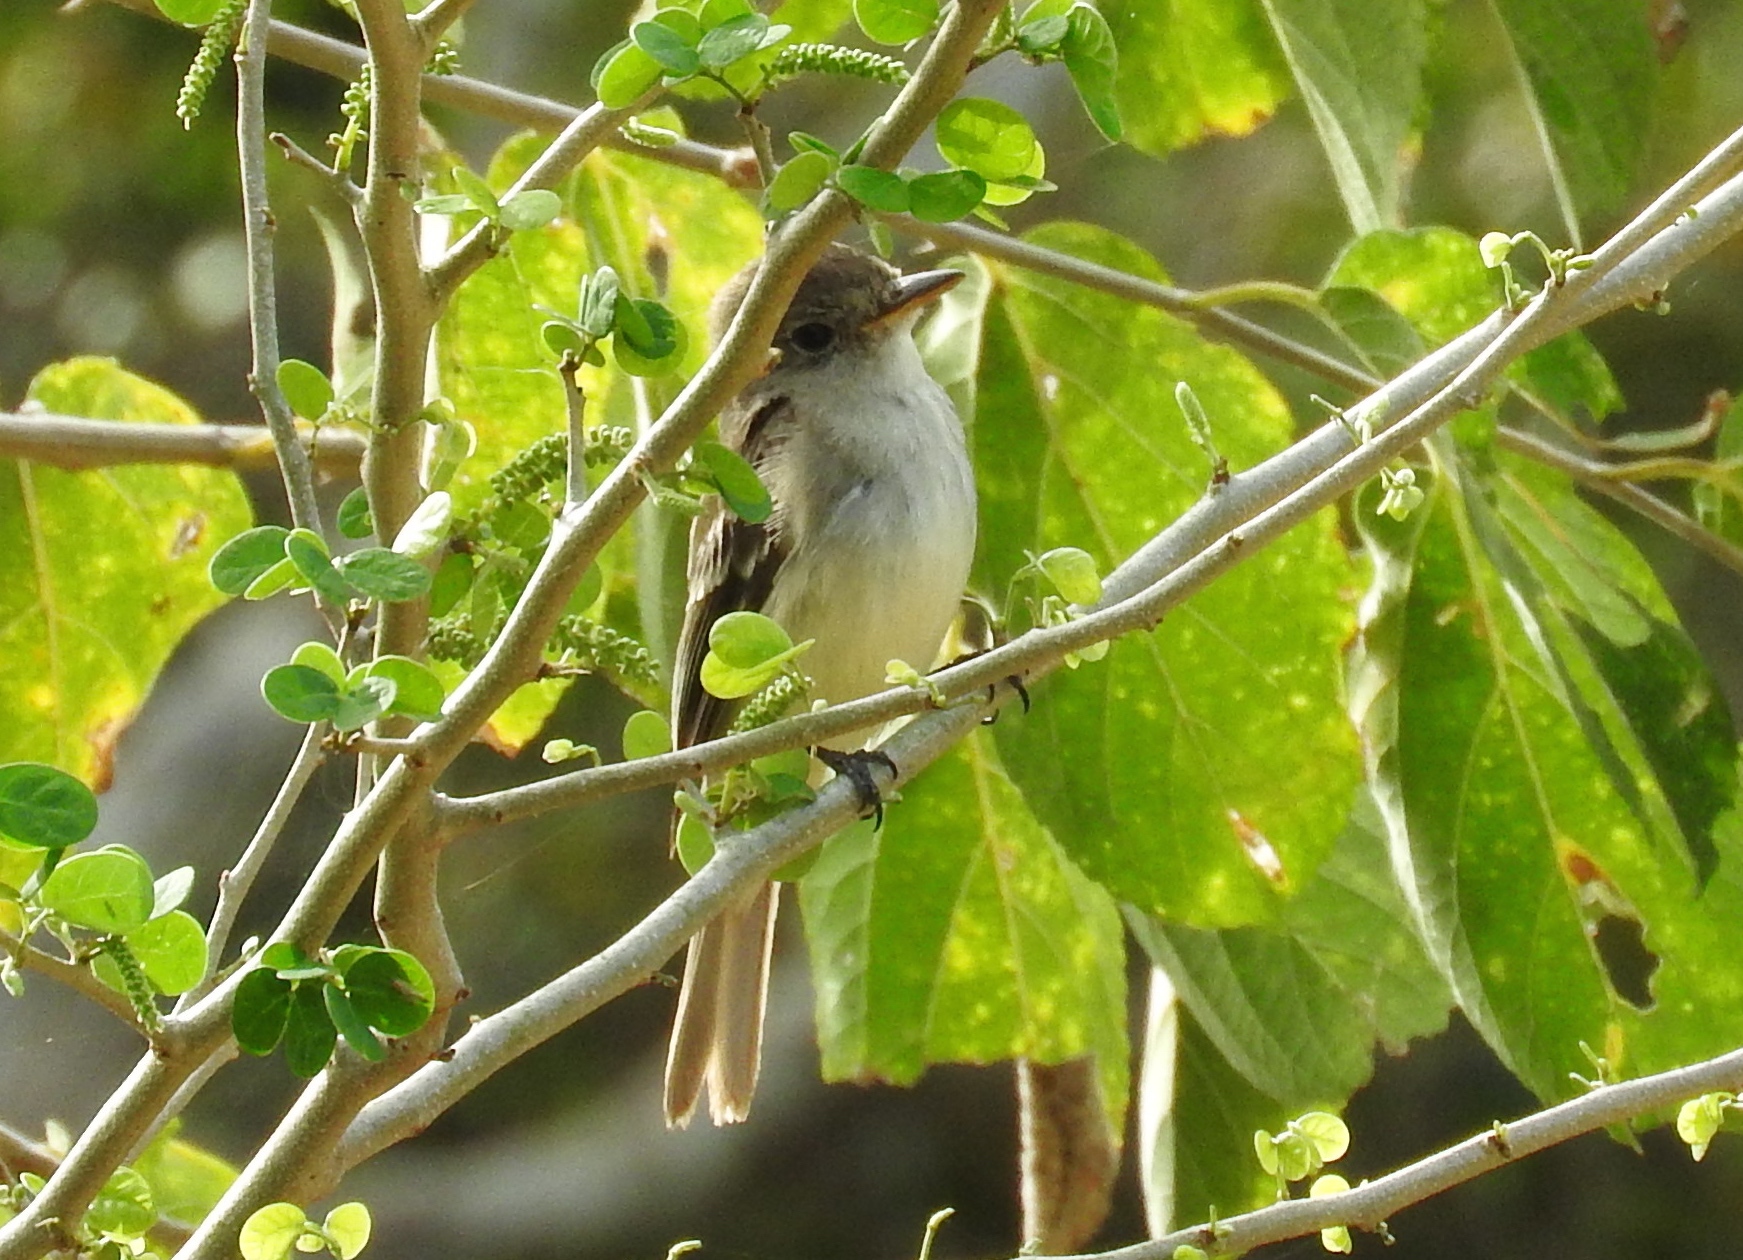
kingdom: Animalia
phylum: Chordata
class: Aves
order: Passeriformes
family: Tyrannidae
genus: Empidonax
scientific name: Empidonax traillii
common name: Willow flycatcher
